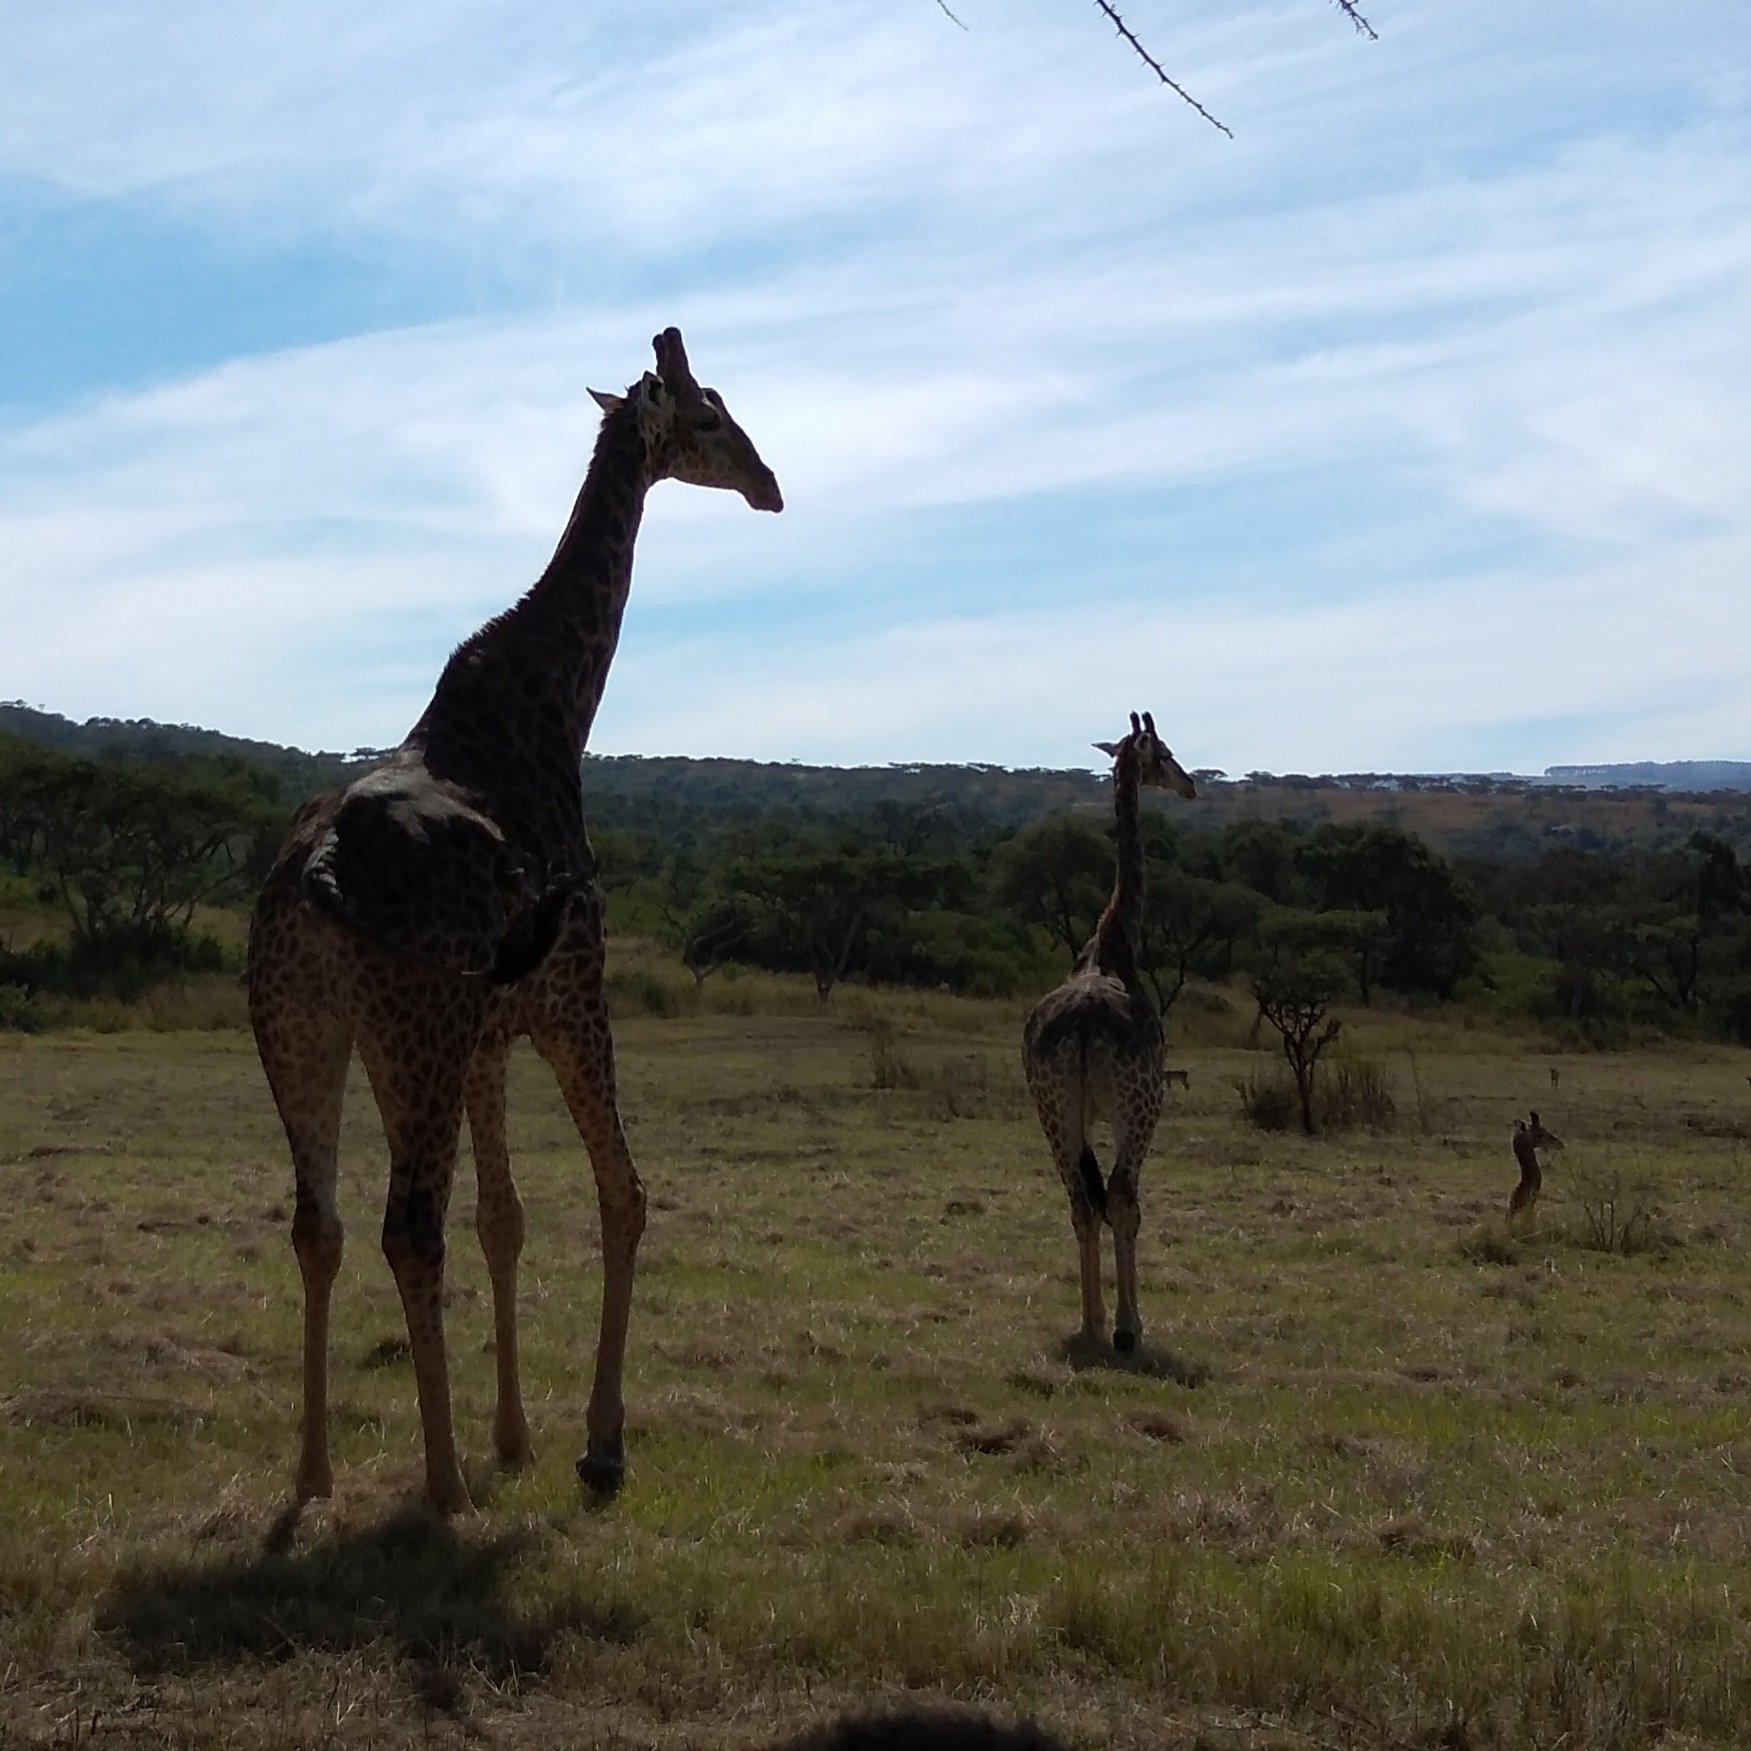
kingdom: Animalia
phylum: Chordata
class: Mammalia
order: Artiodactyla
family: Giraffidae
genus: Giraffa
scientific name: Giraffa giraffa
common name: Southern giraffe
